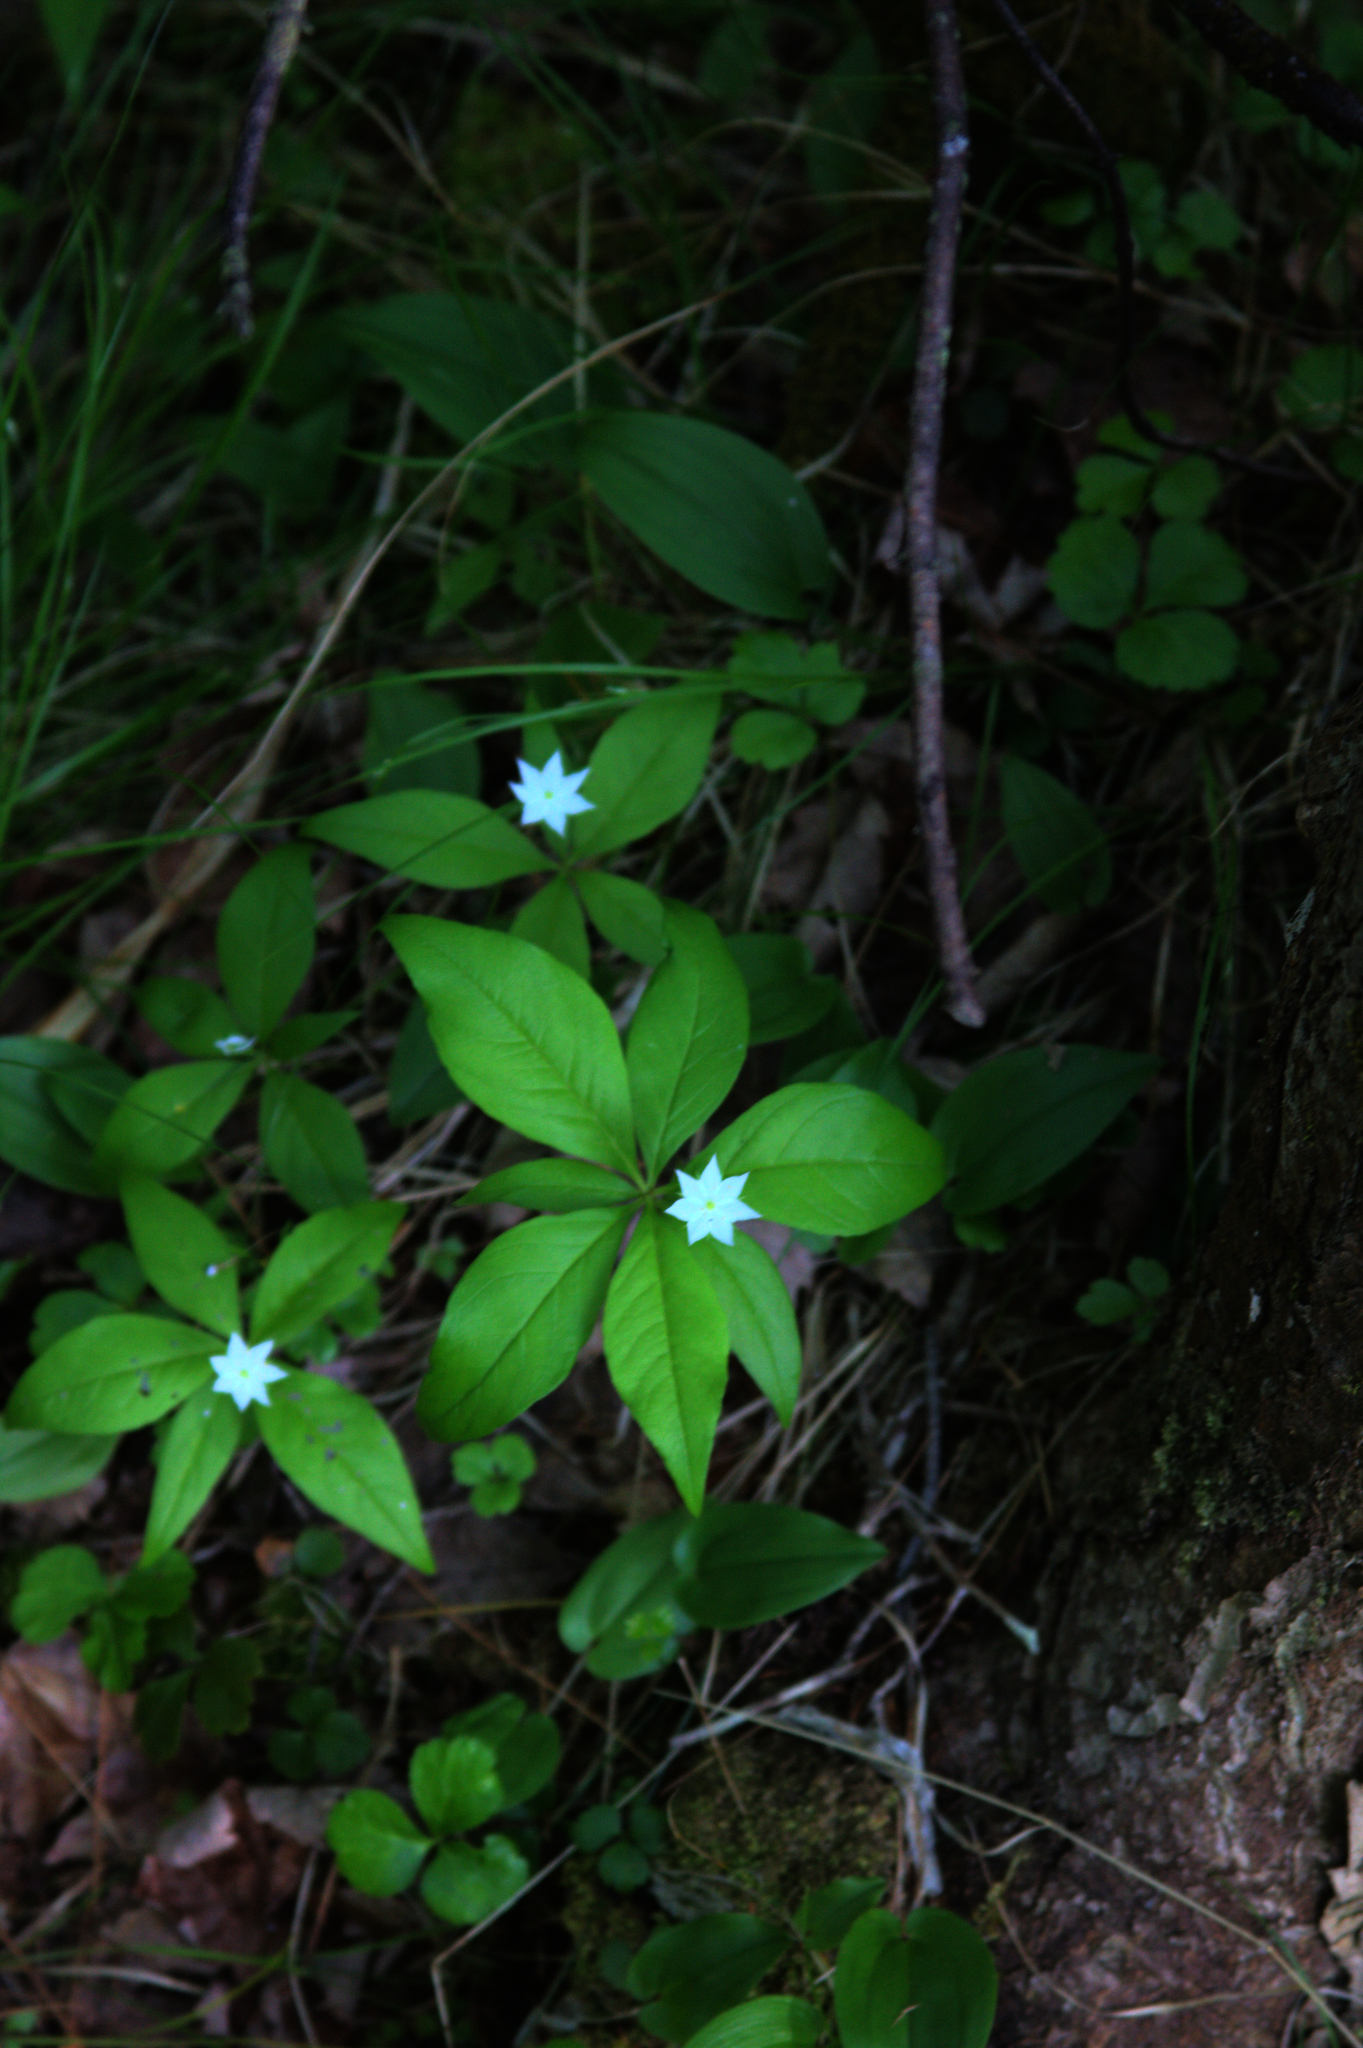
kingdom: Plantae
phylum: Tracheophyta
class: Magnoliopsida
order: Ericales
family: Primulaceae
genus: Lysimachia
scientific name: Lysimachia borealis
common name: American starflower
